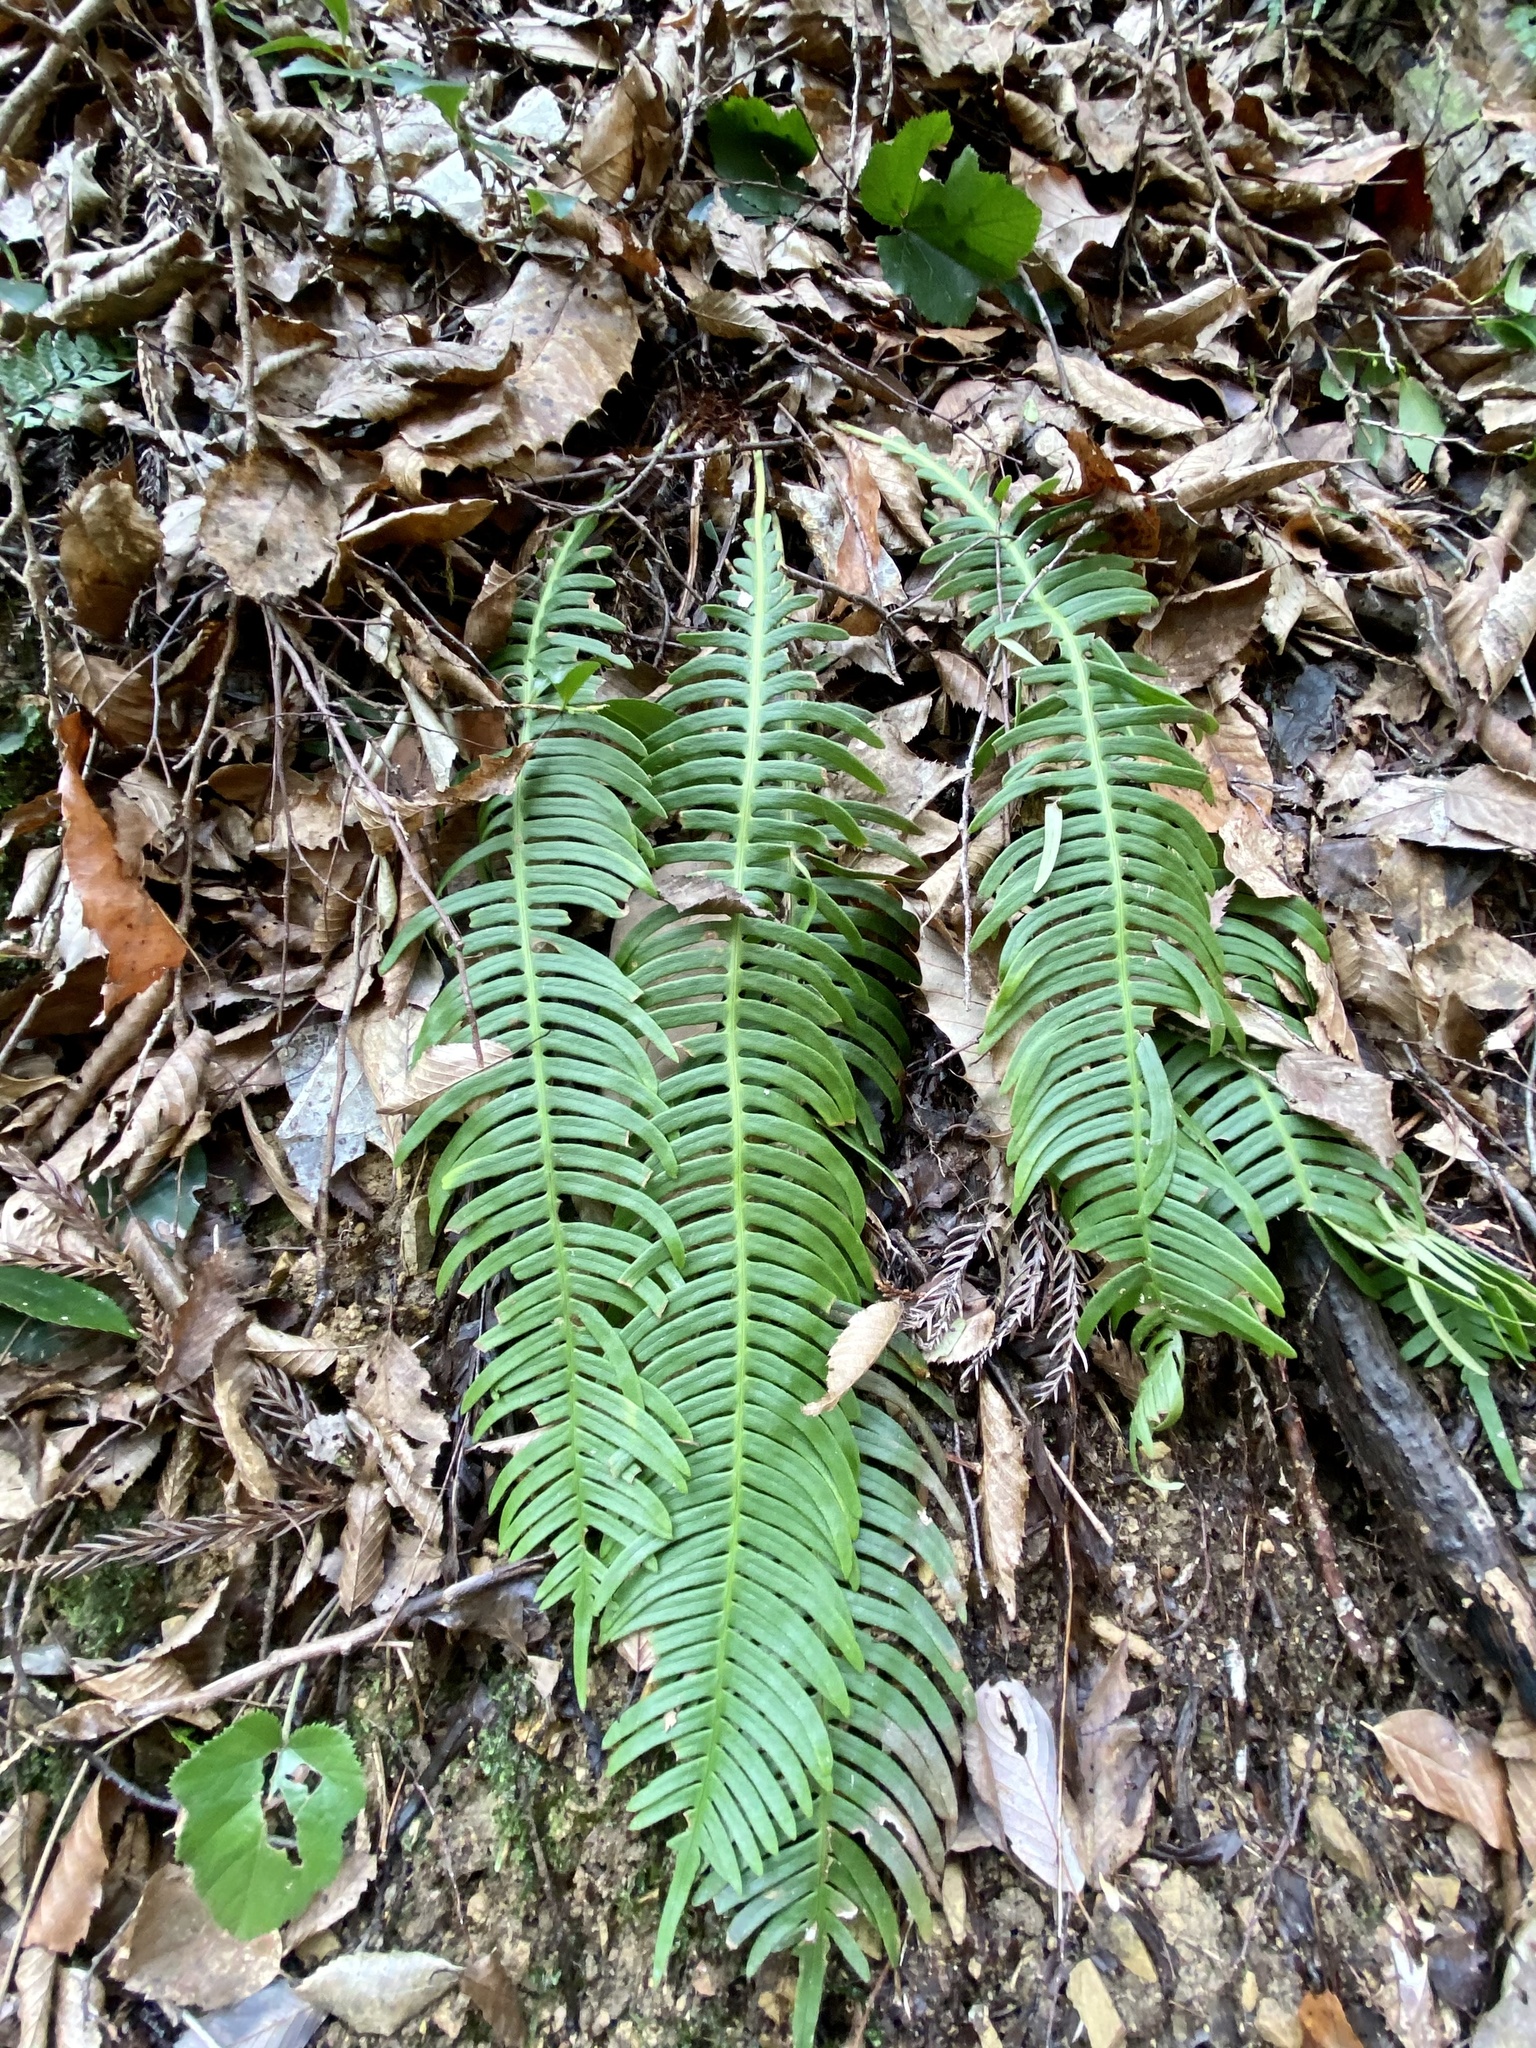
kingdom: Plantae
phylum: Tracheophyta
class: Polypodiopsida
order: Polypodiales
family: Blechnaceae
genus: Spicantopsis
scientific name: Spicantopsis niponica
